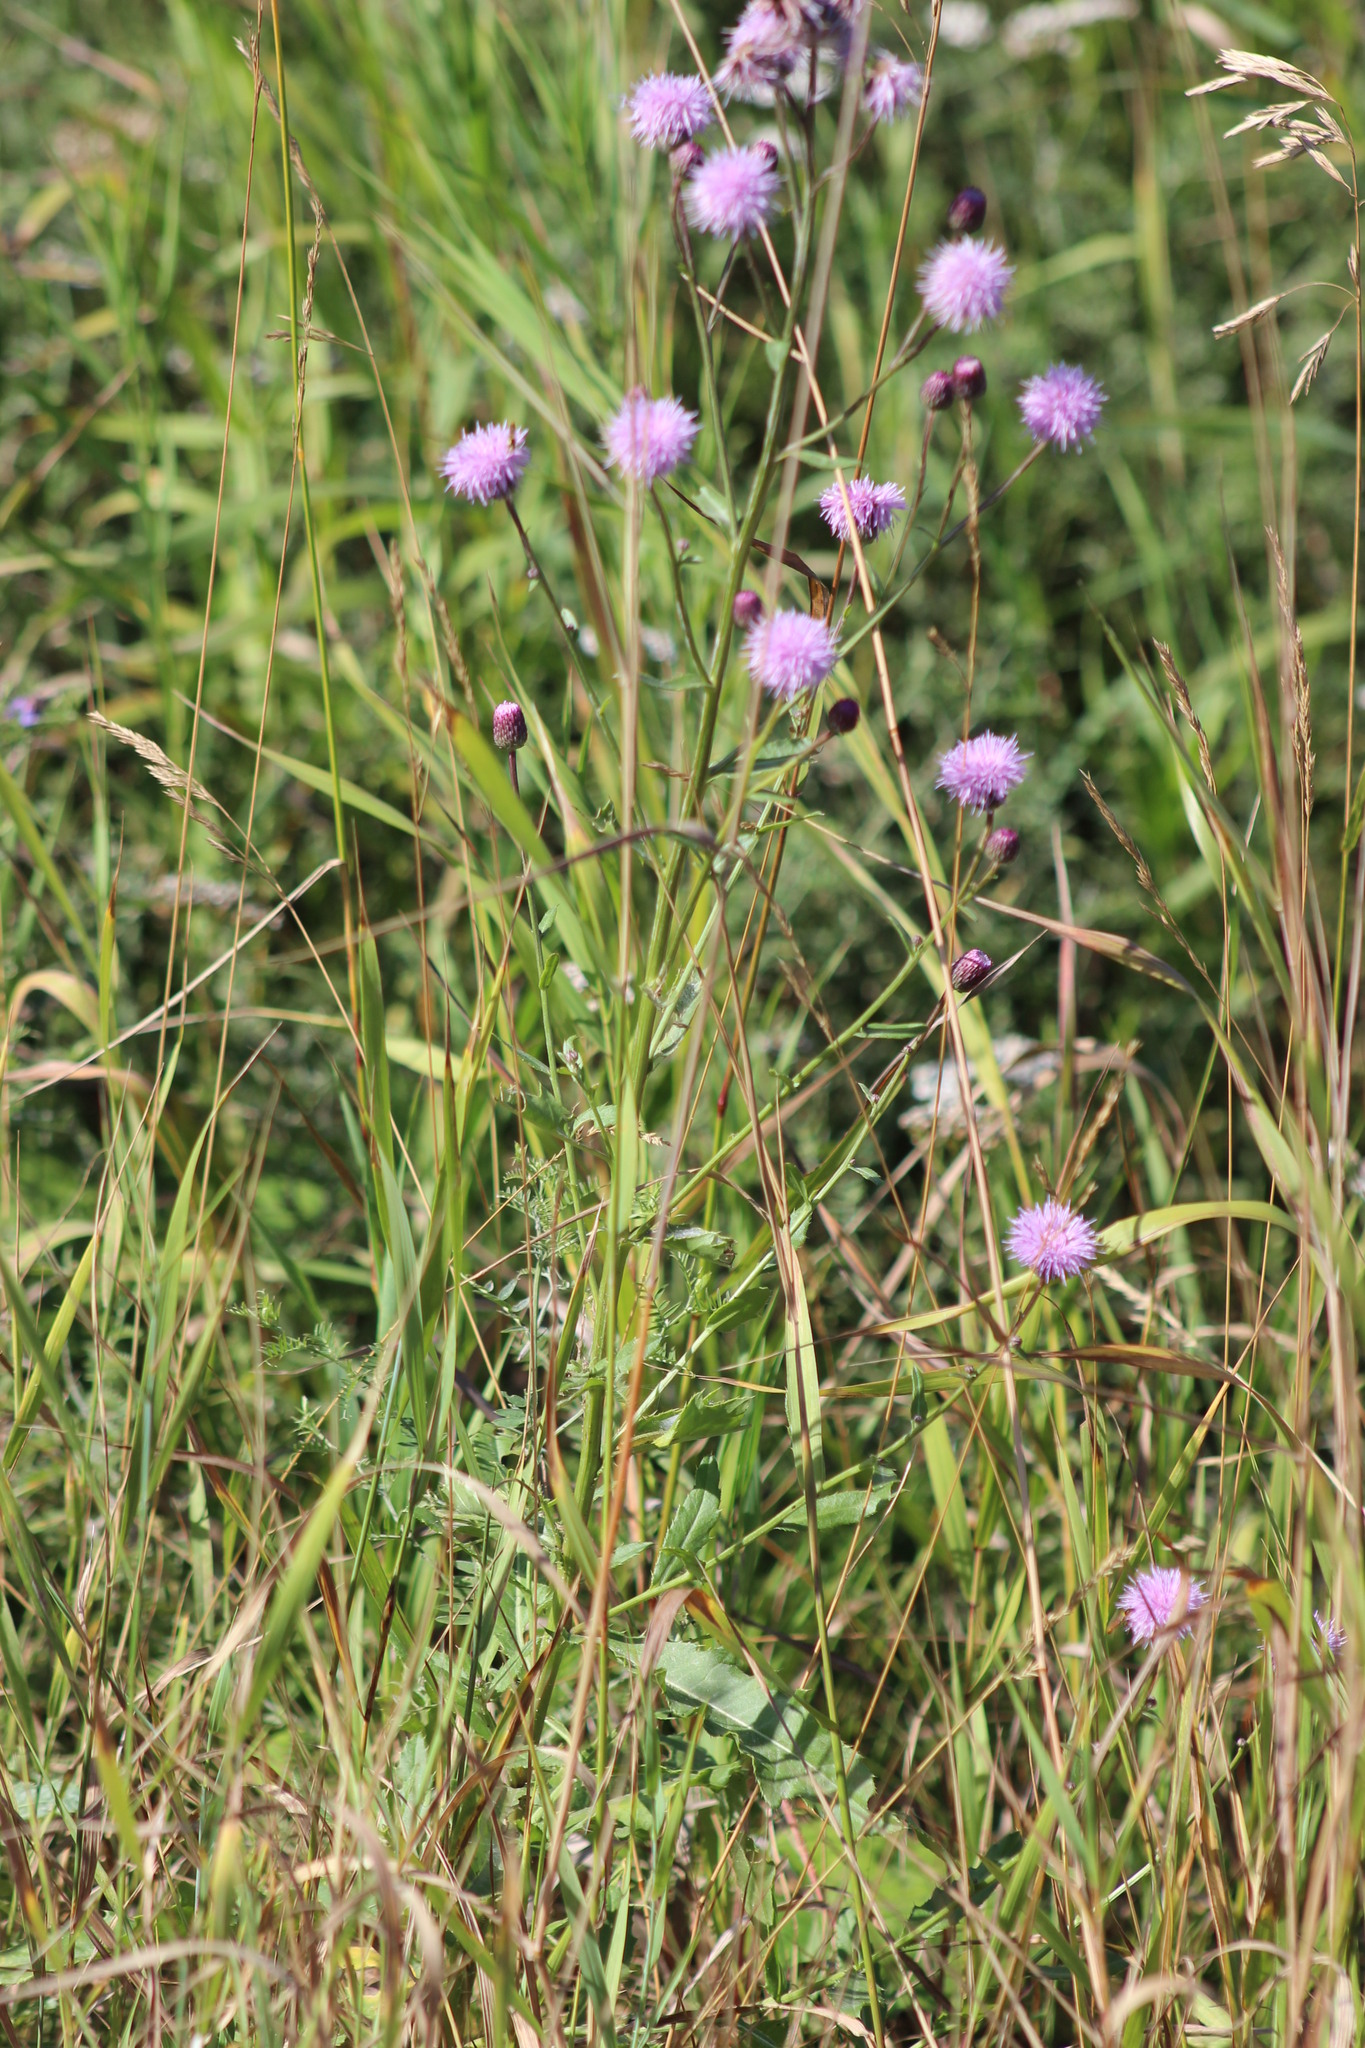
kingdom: Plantae
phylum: Tracheophyta
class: Magnoliopsida
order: Asterales
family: Asteraceae
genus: Cirsium
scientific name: Cirsium arvense
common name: Creeping thistle
